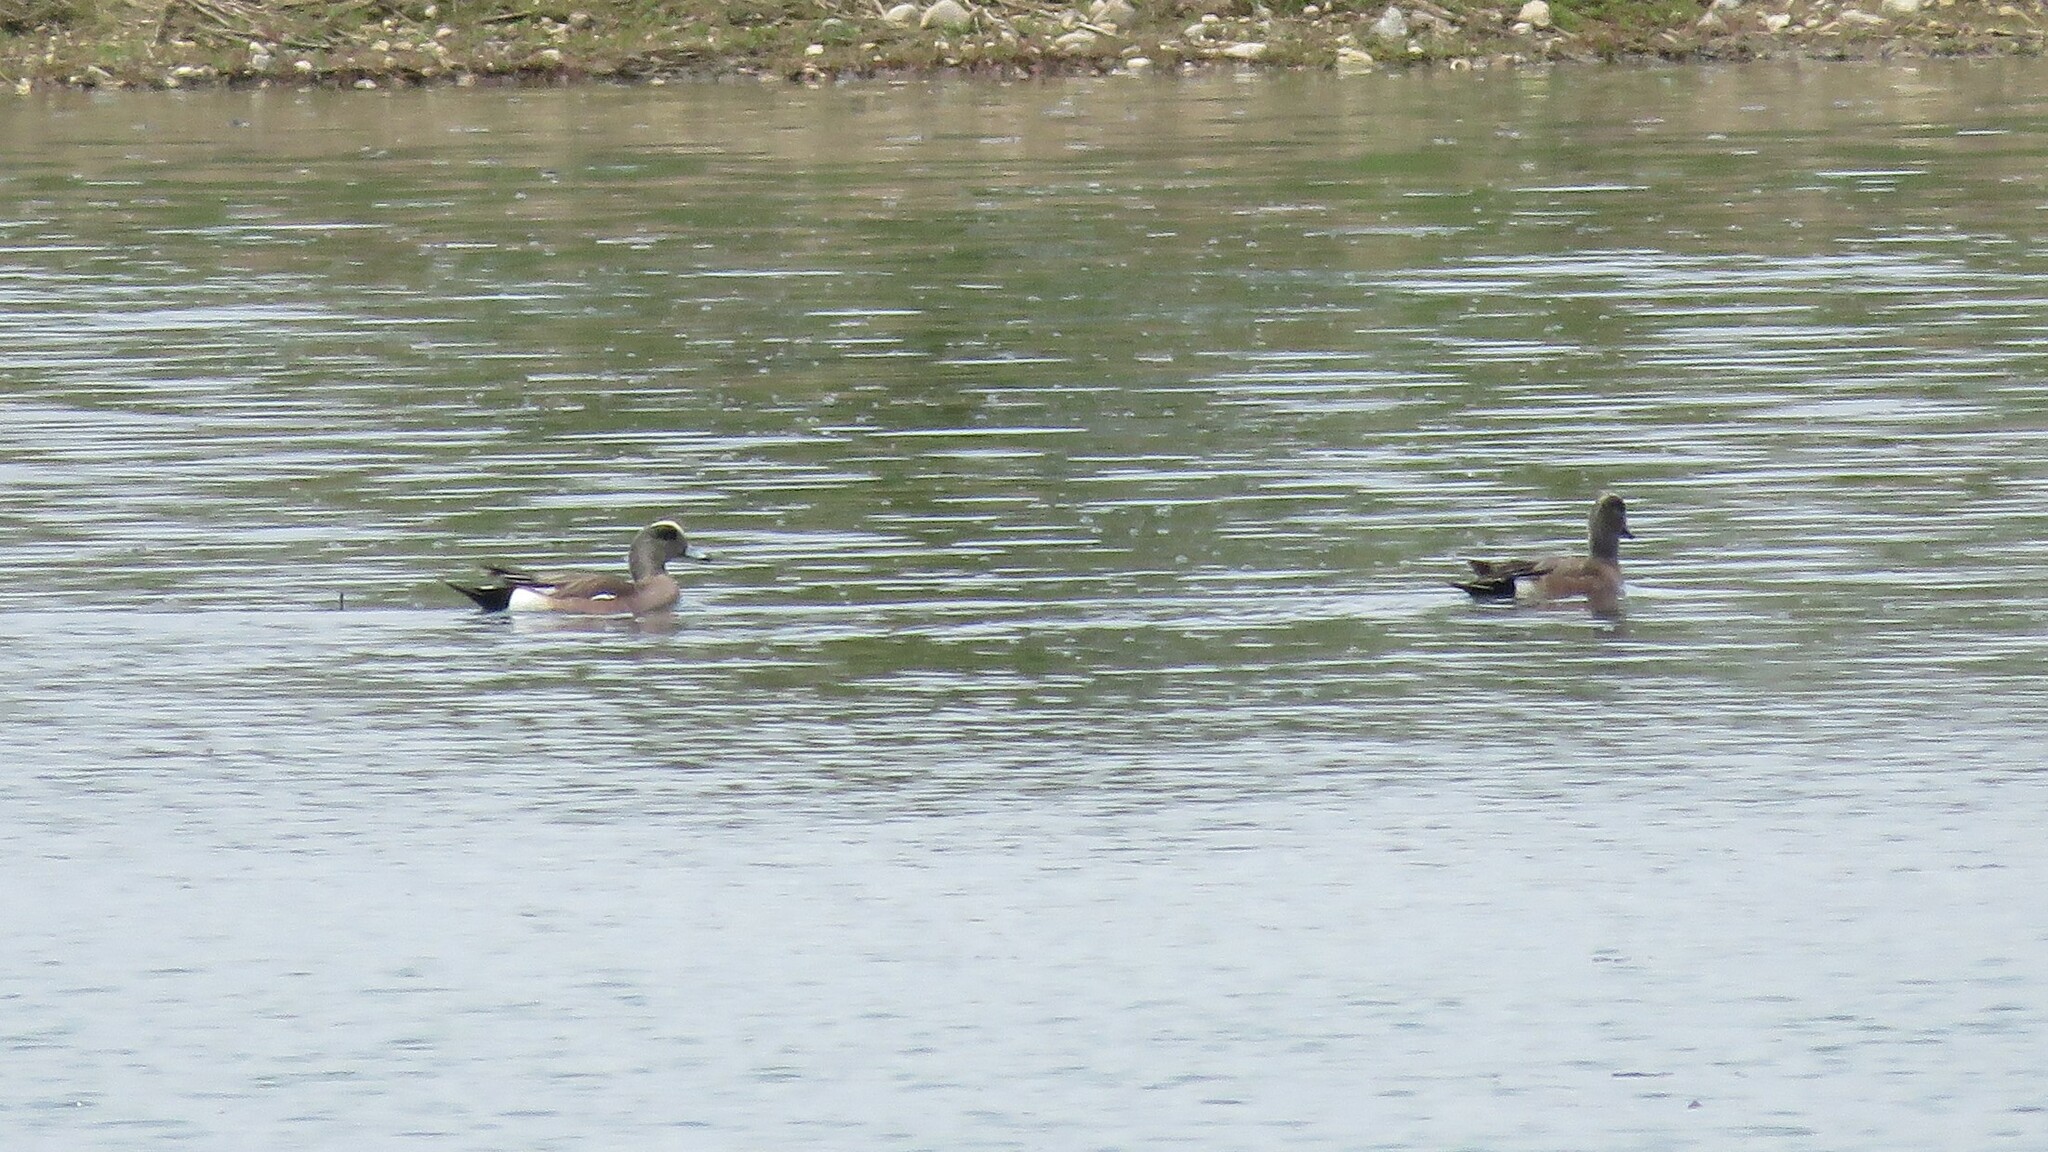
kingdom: Animalia
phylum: Chordata
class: Aves
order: Anseriformes
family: Anatidae
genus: Mareca
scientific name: Mareca americana
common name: American wigeon
